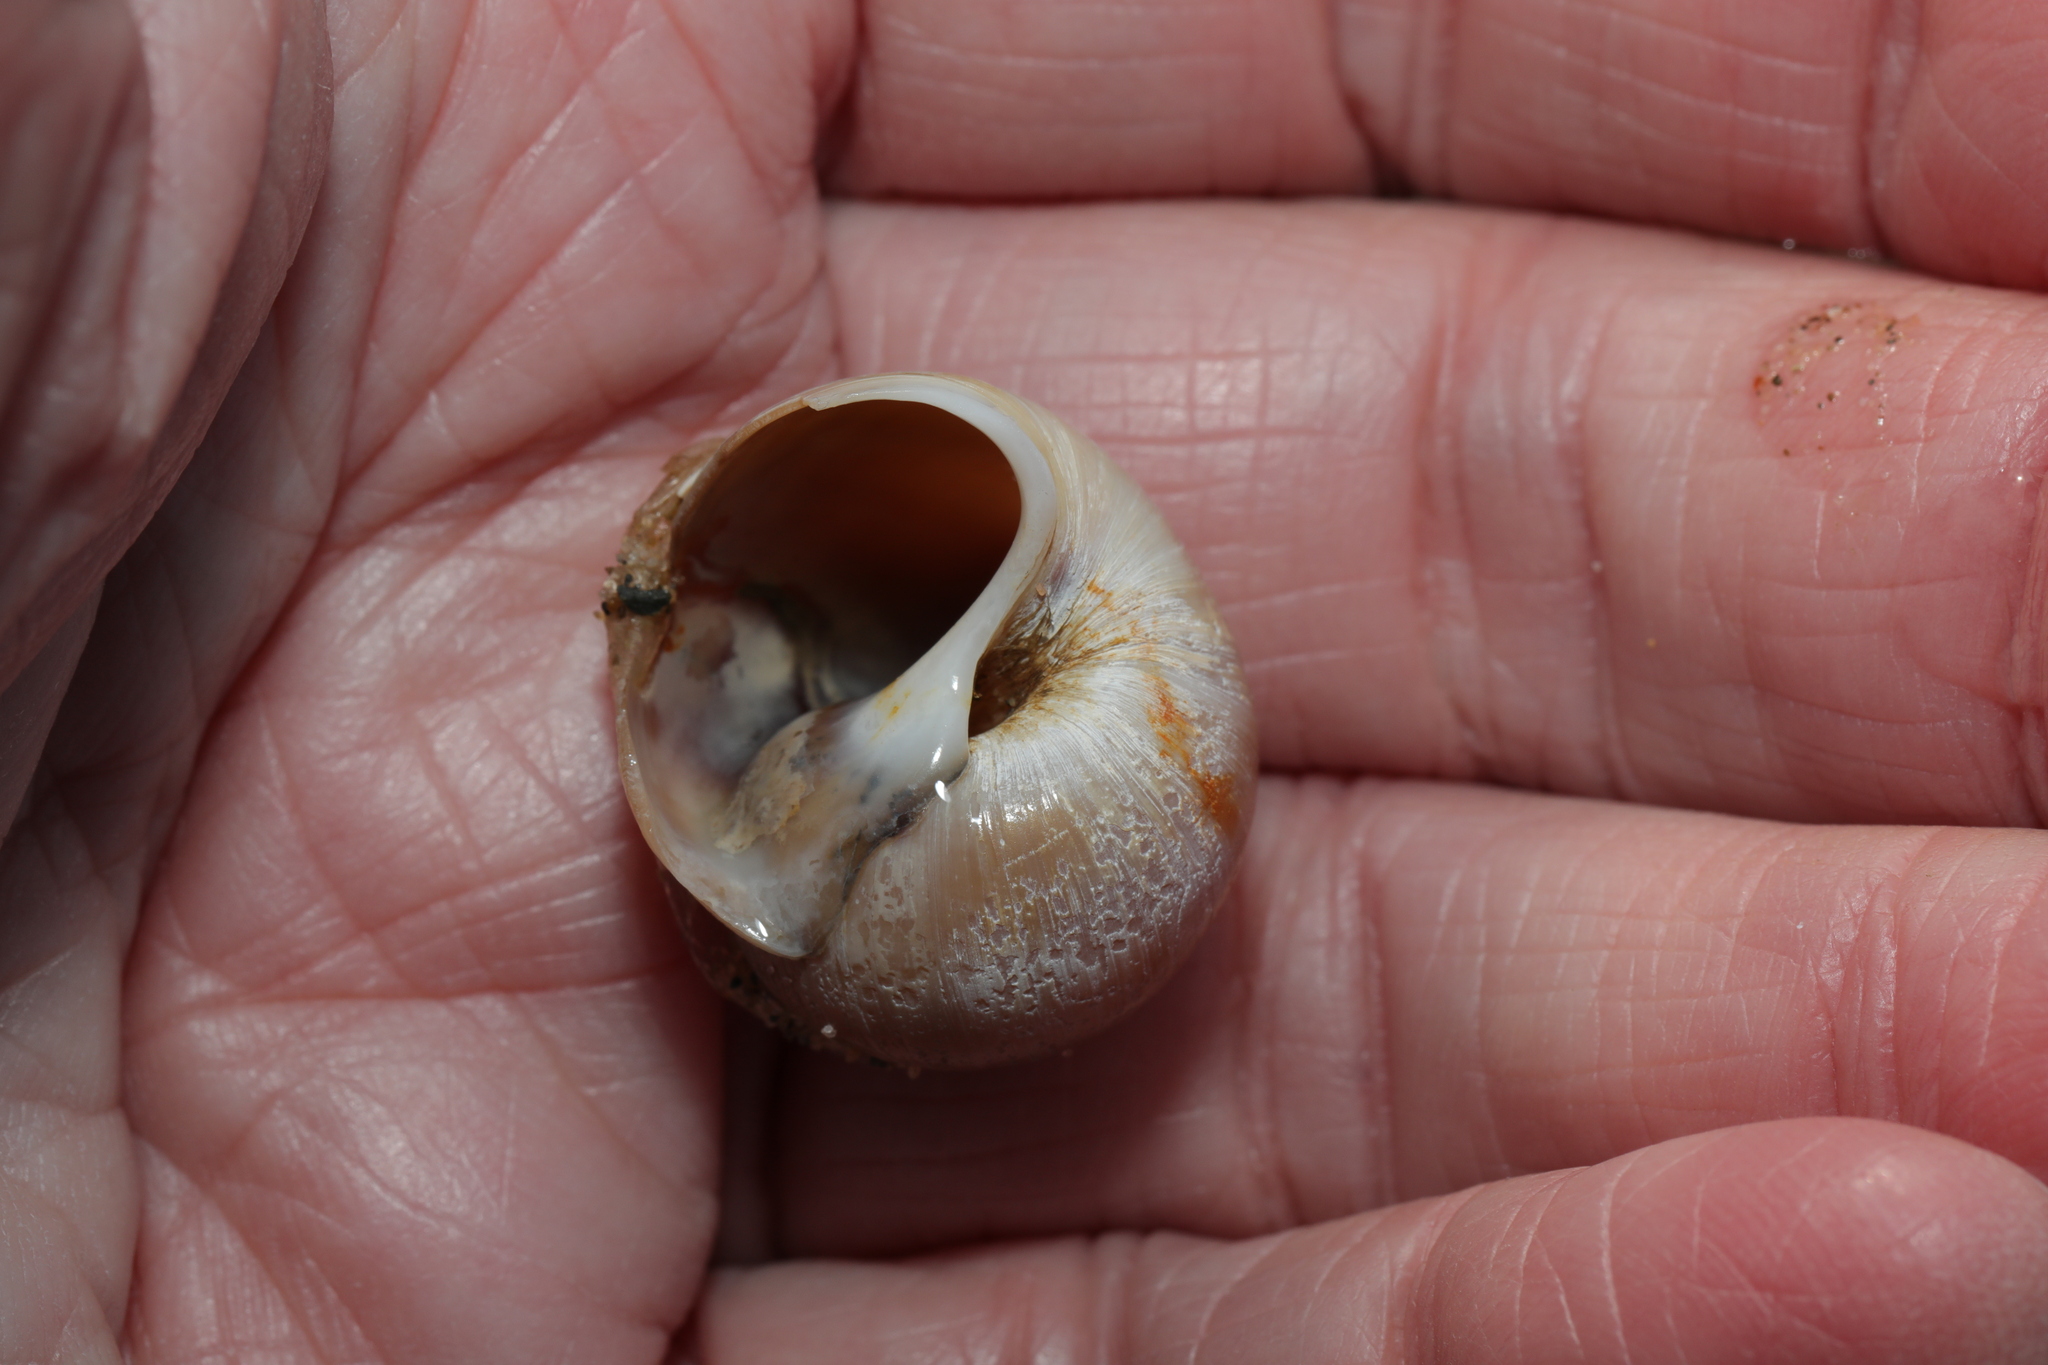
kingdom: Animalia
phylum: Mollusca
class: Gastropoda
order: Littorinimorpha
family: Naticidae
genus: Euspira
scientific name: Euspira catena
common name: Necklace shell
